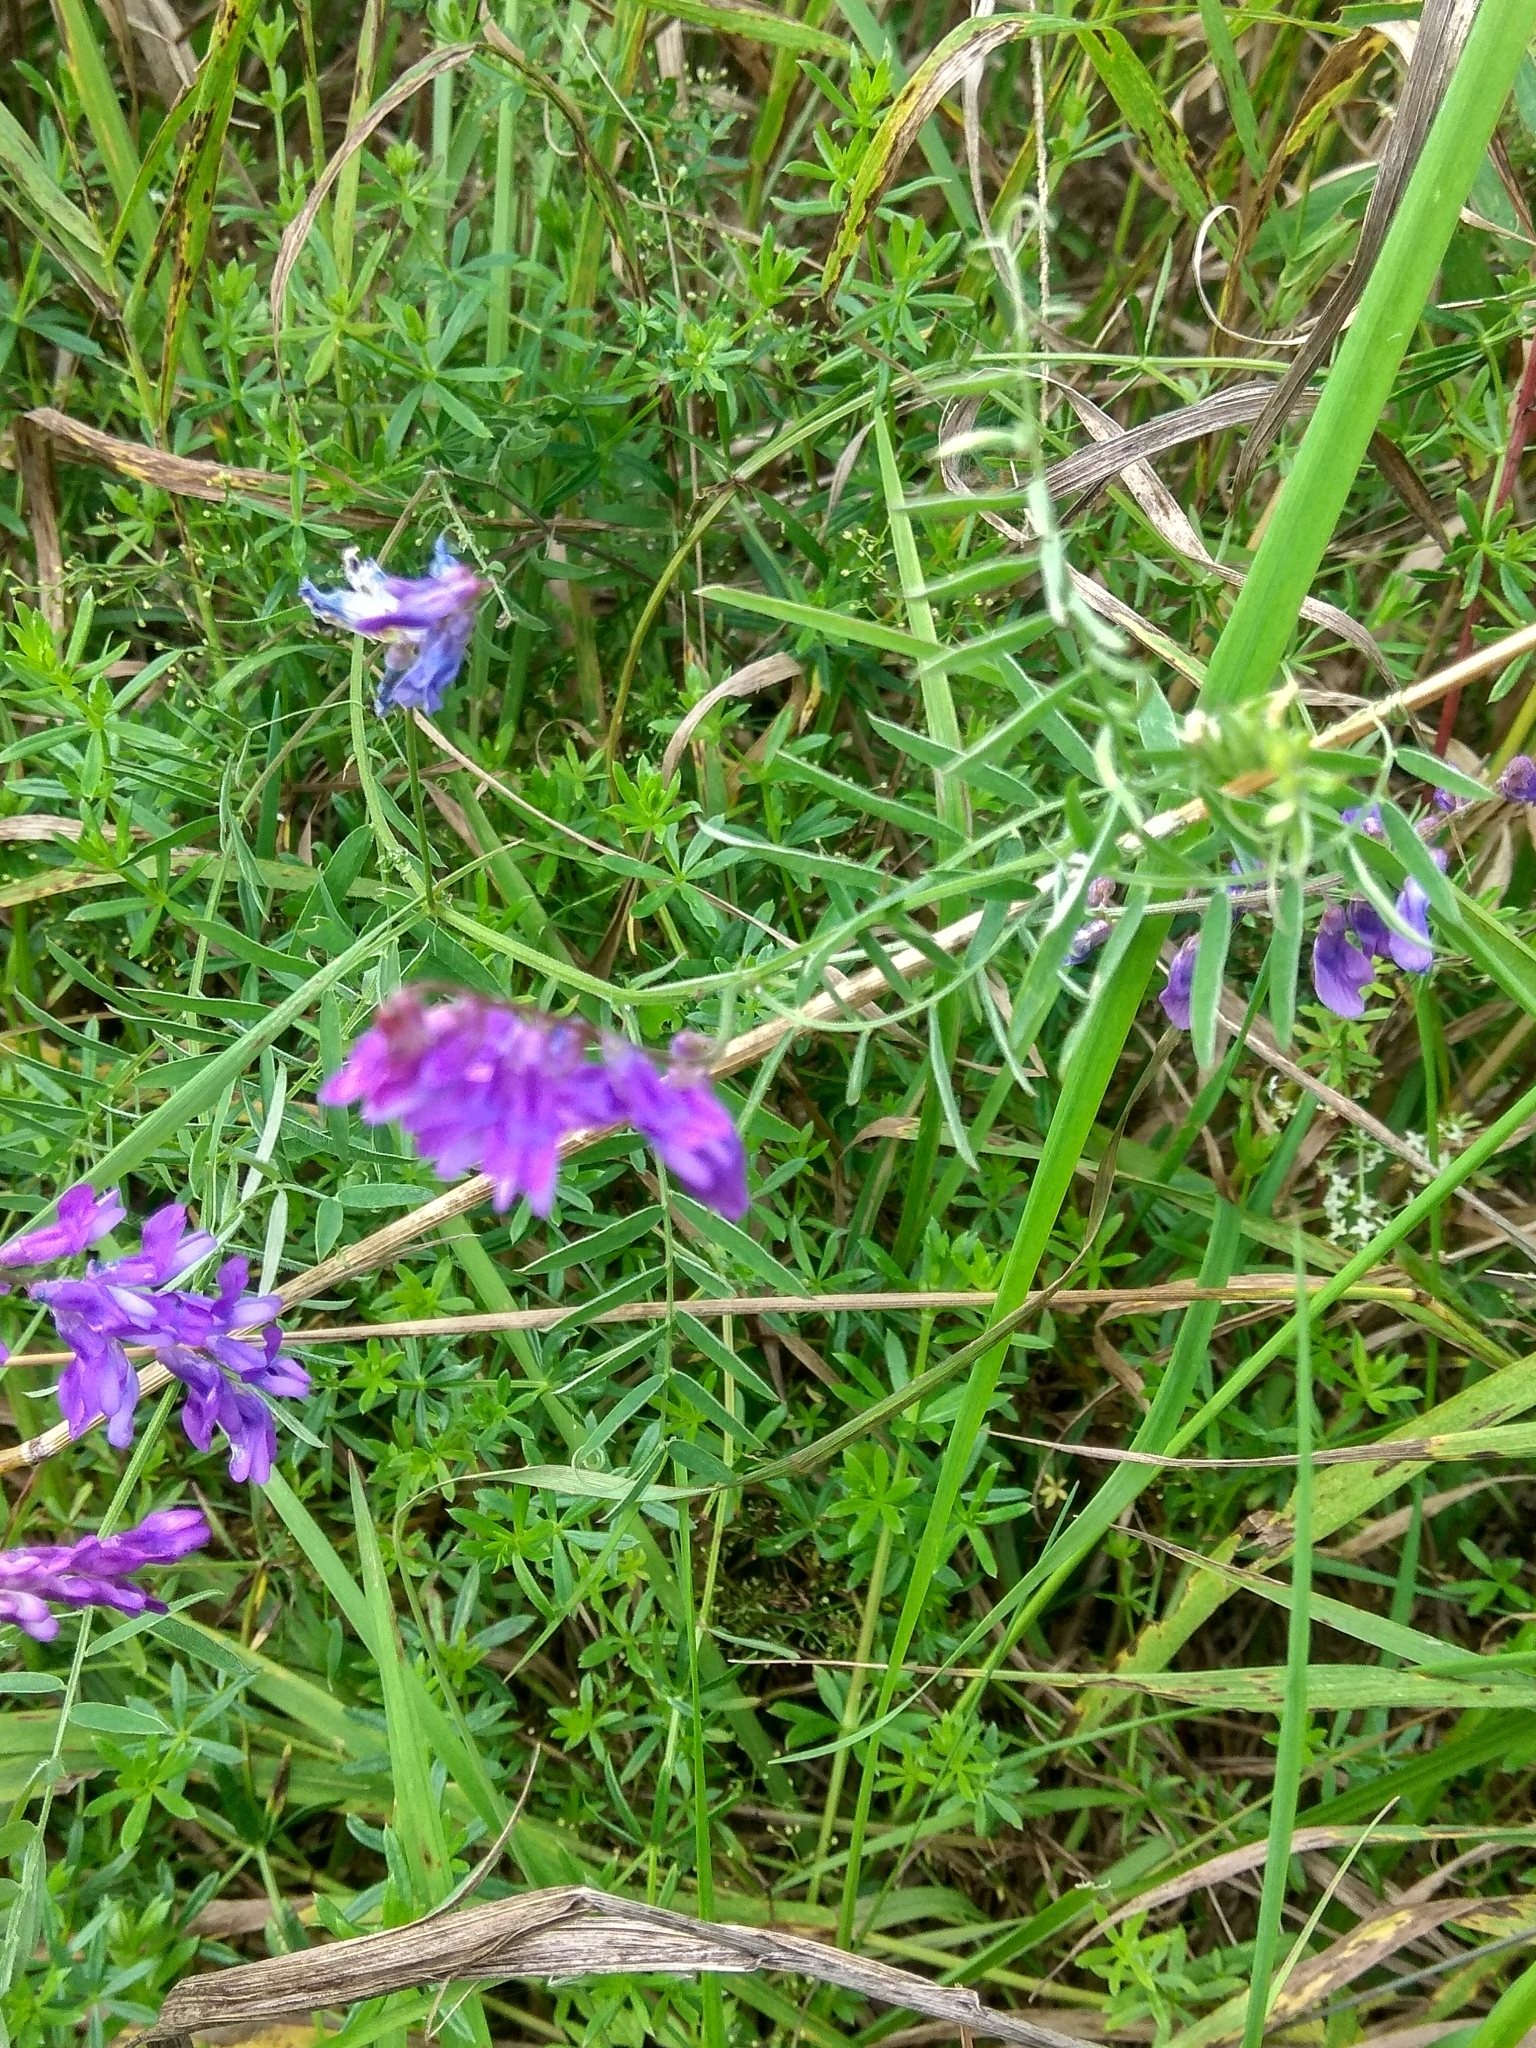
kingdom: Plantae
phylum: Tracheophyta
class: Magnoliopsida
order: Fabales
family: Fabaceae
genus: Vicia
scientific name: Vicia cracca
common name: Bird vetch
